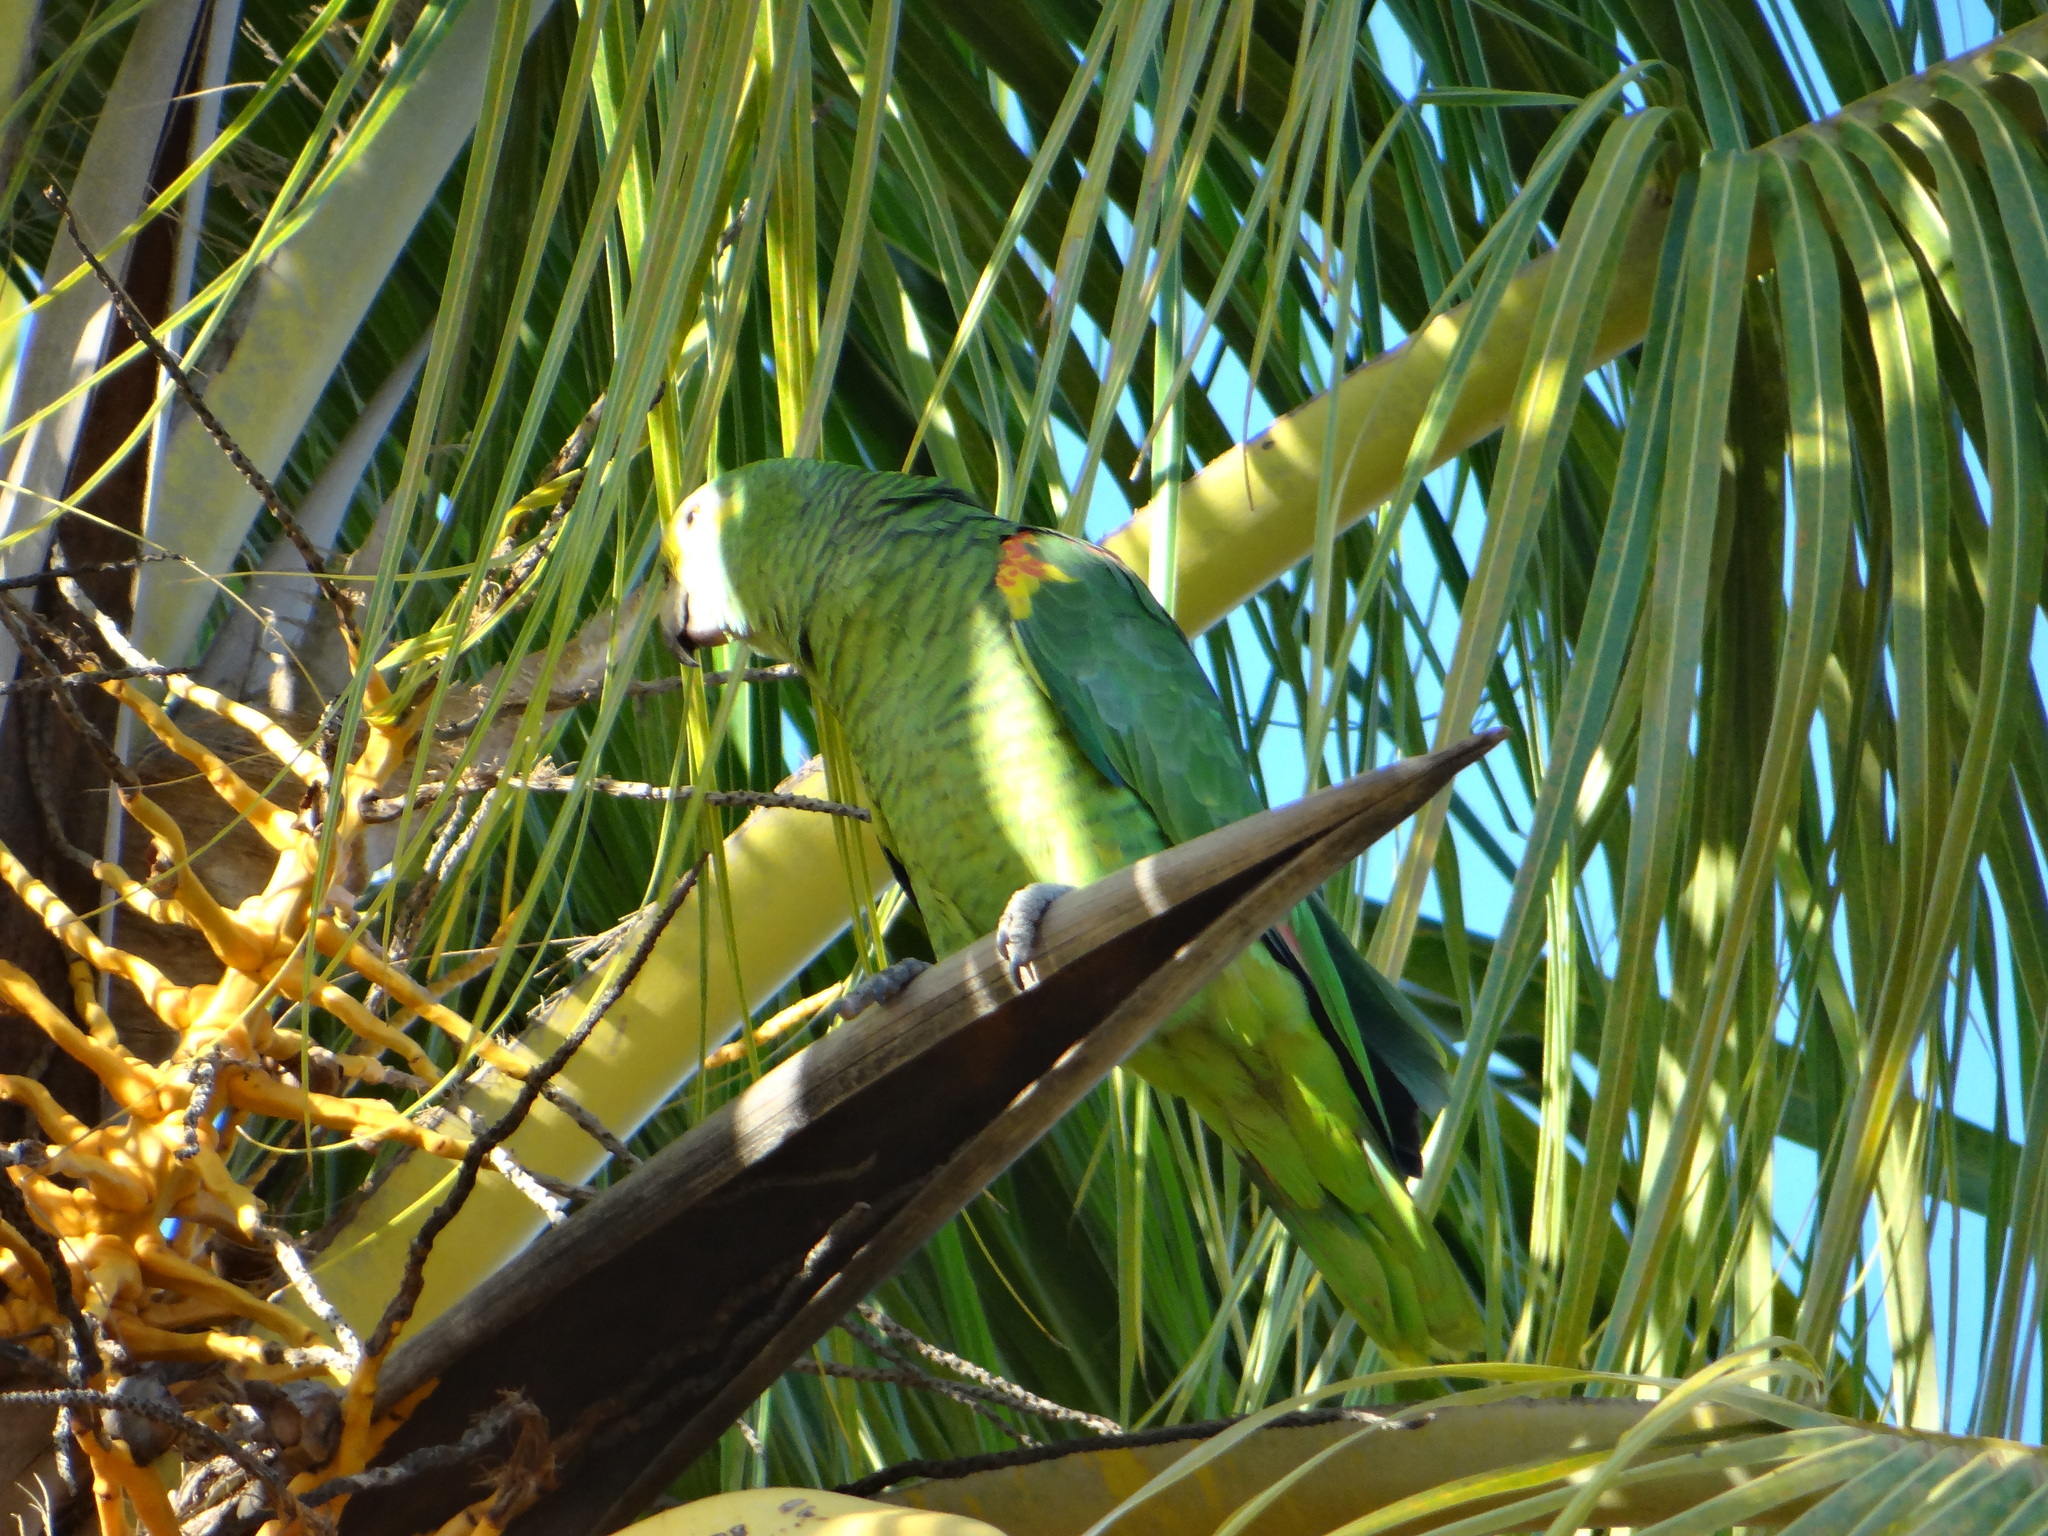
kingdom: Animalia
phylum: Chordata
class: Aves
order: Psittaciformes
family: Psittacidae
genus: Amazona
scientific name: Amazona aestiva
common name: Turquoise-fronted amazon
